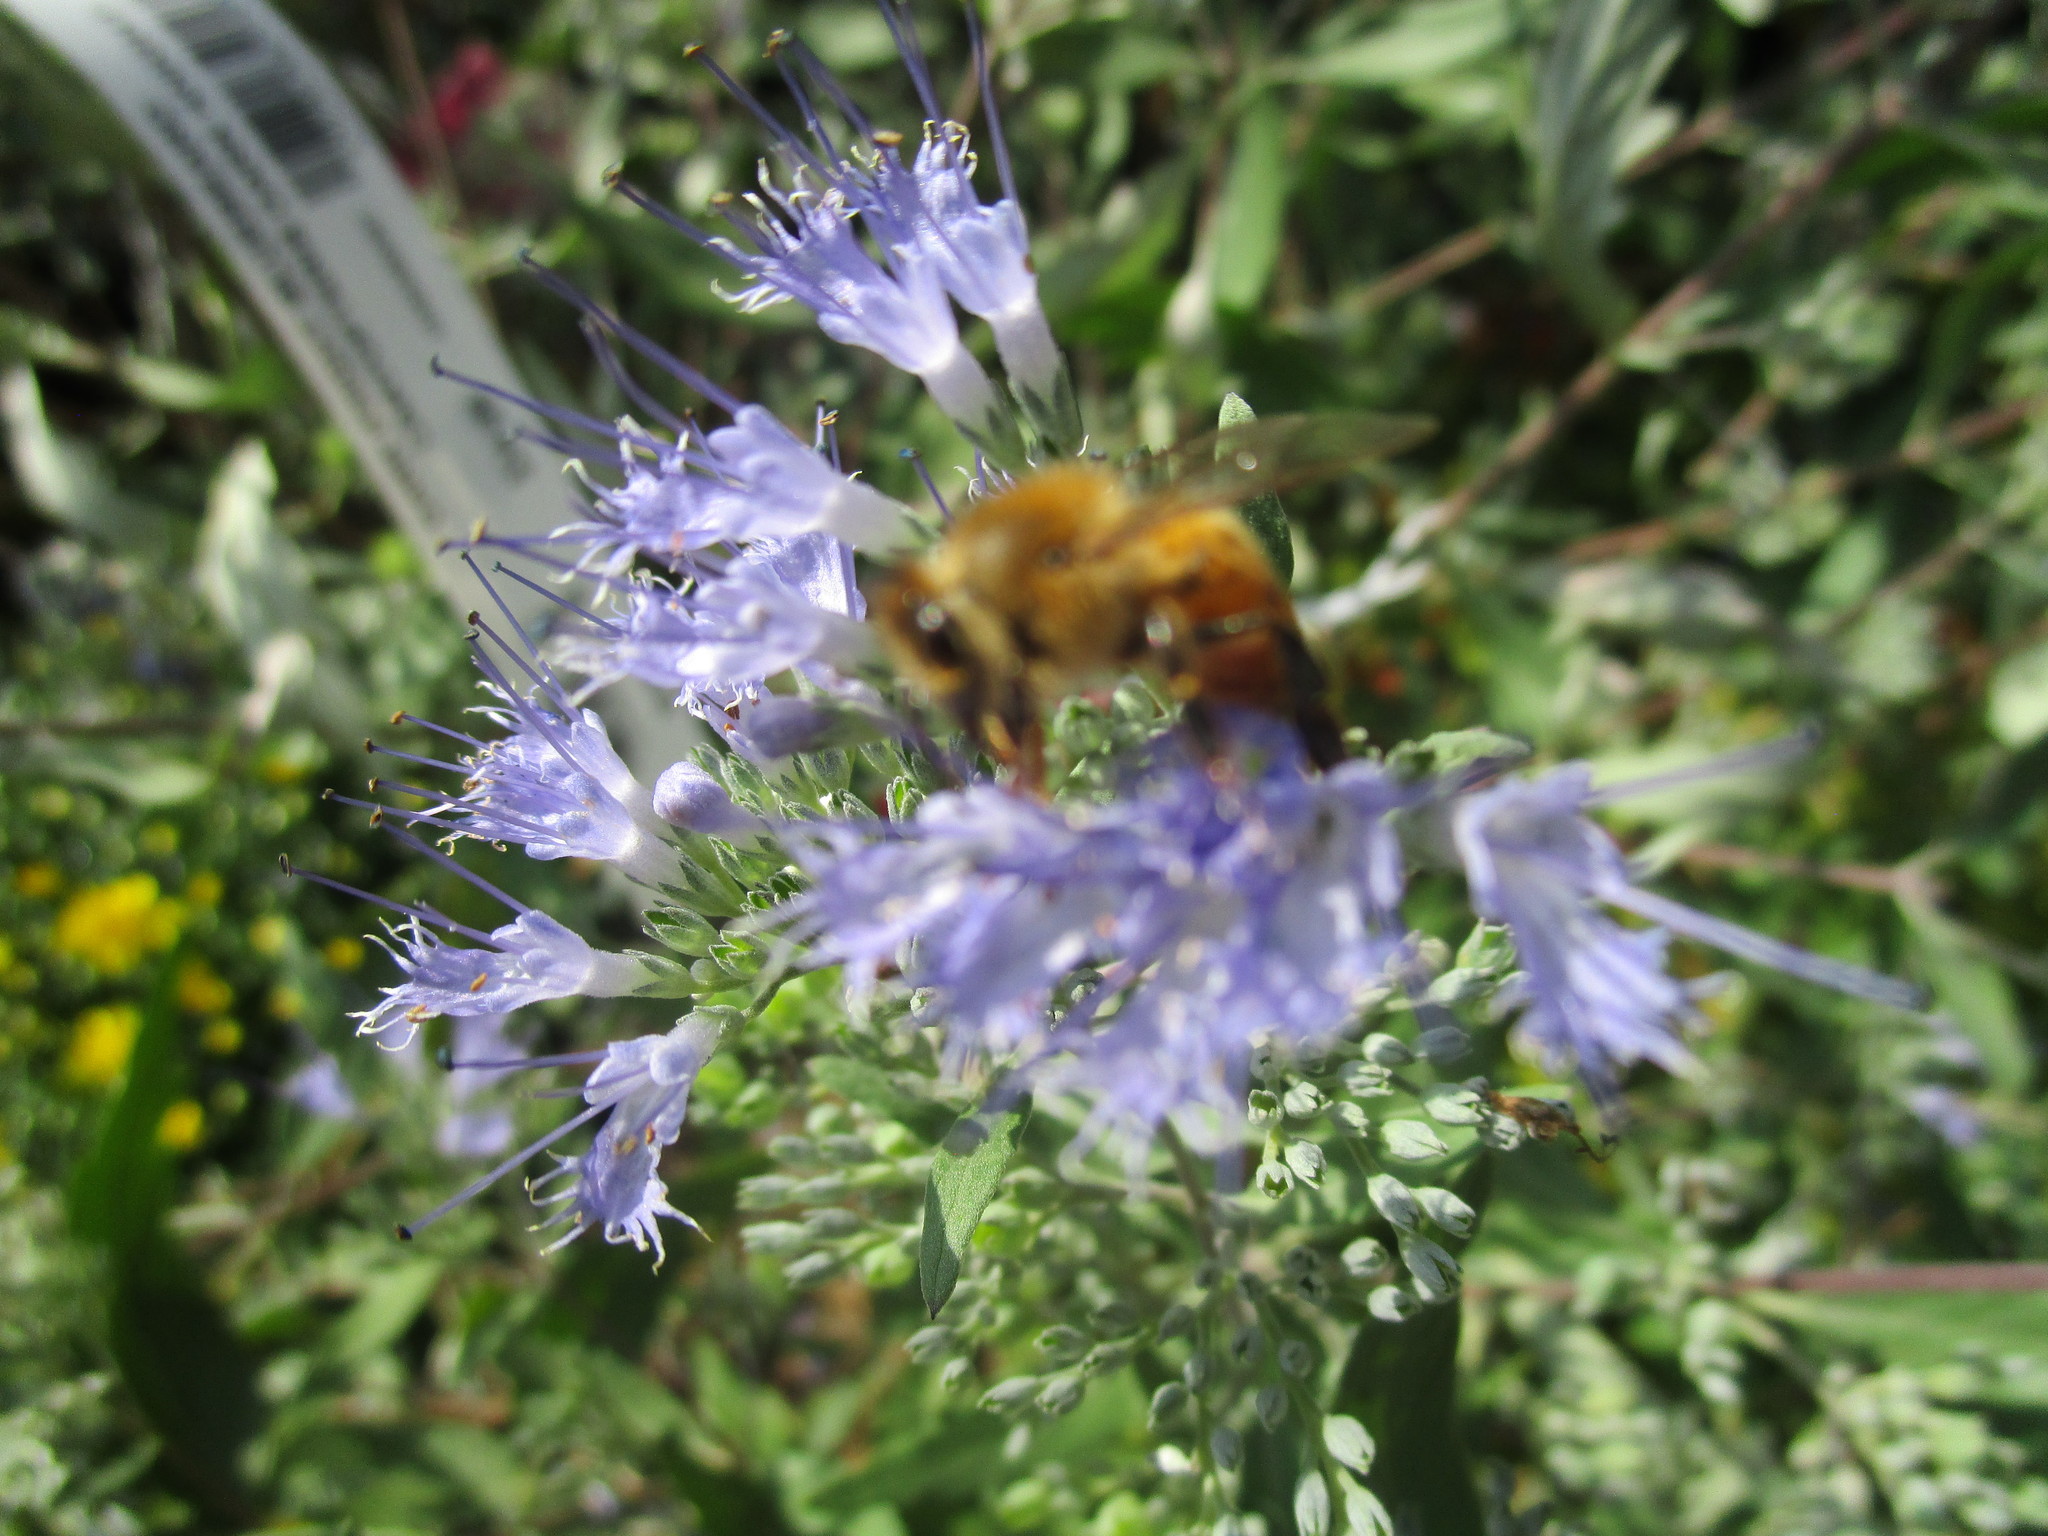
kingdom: Animalia
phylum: Arthropoda
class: Insecta
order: Hymenoptera
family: Apidae
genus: Apis
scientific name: Apis mellifera
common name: Honey bee
